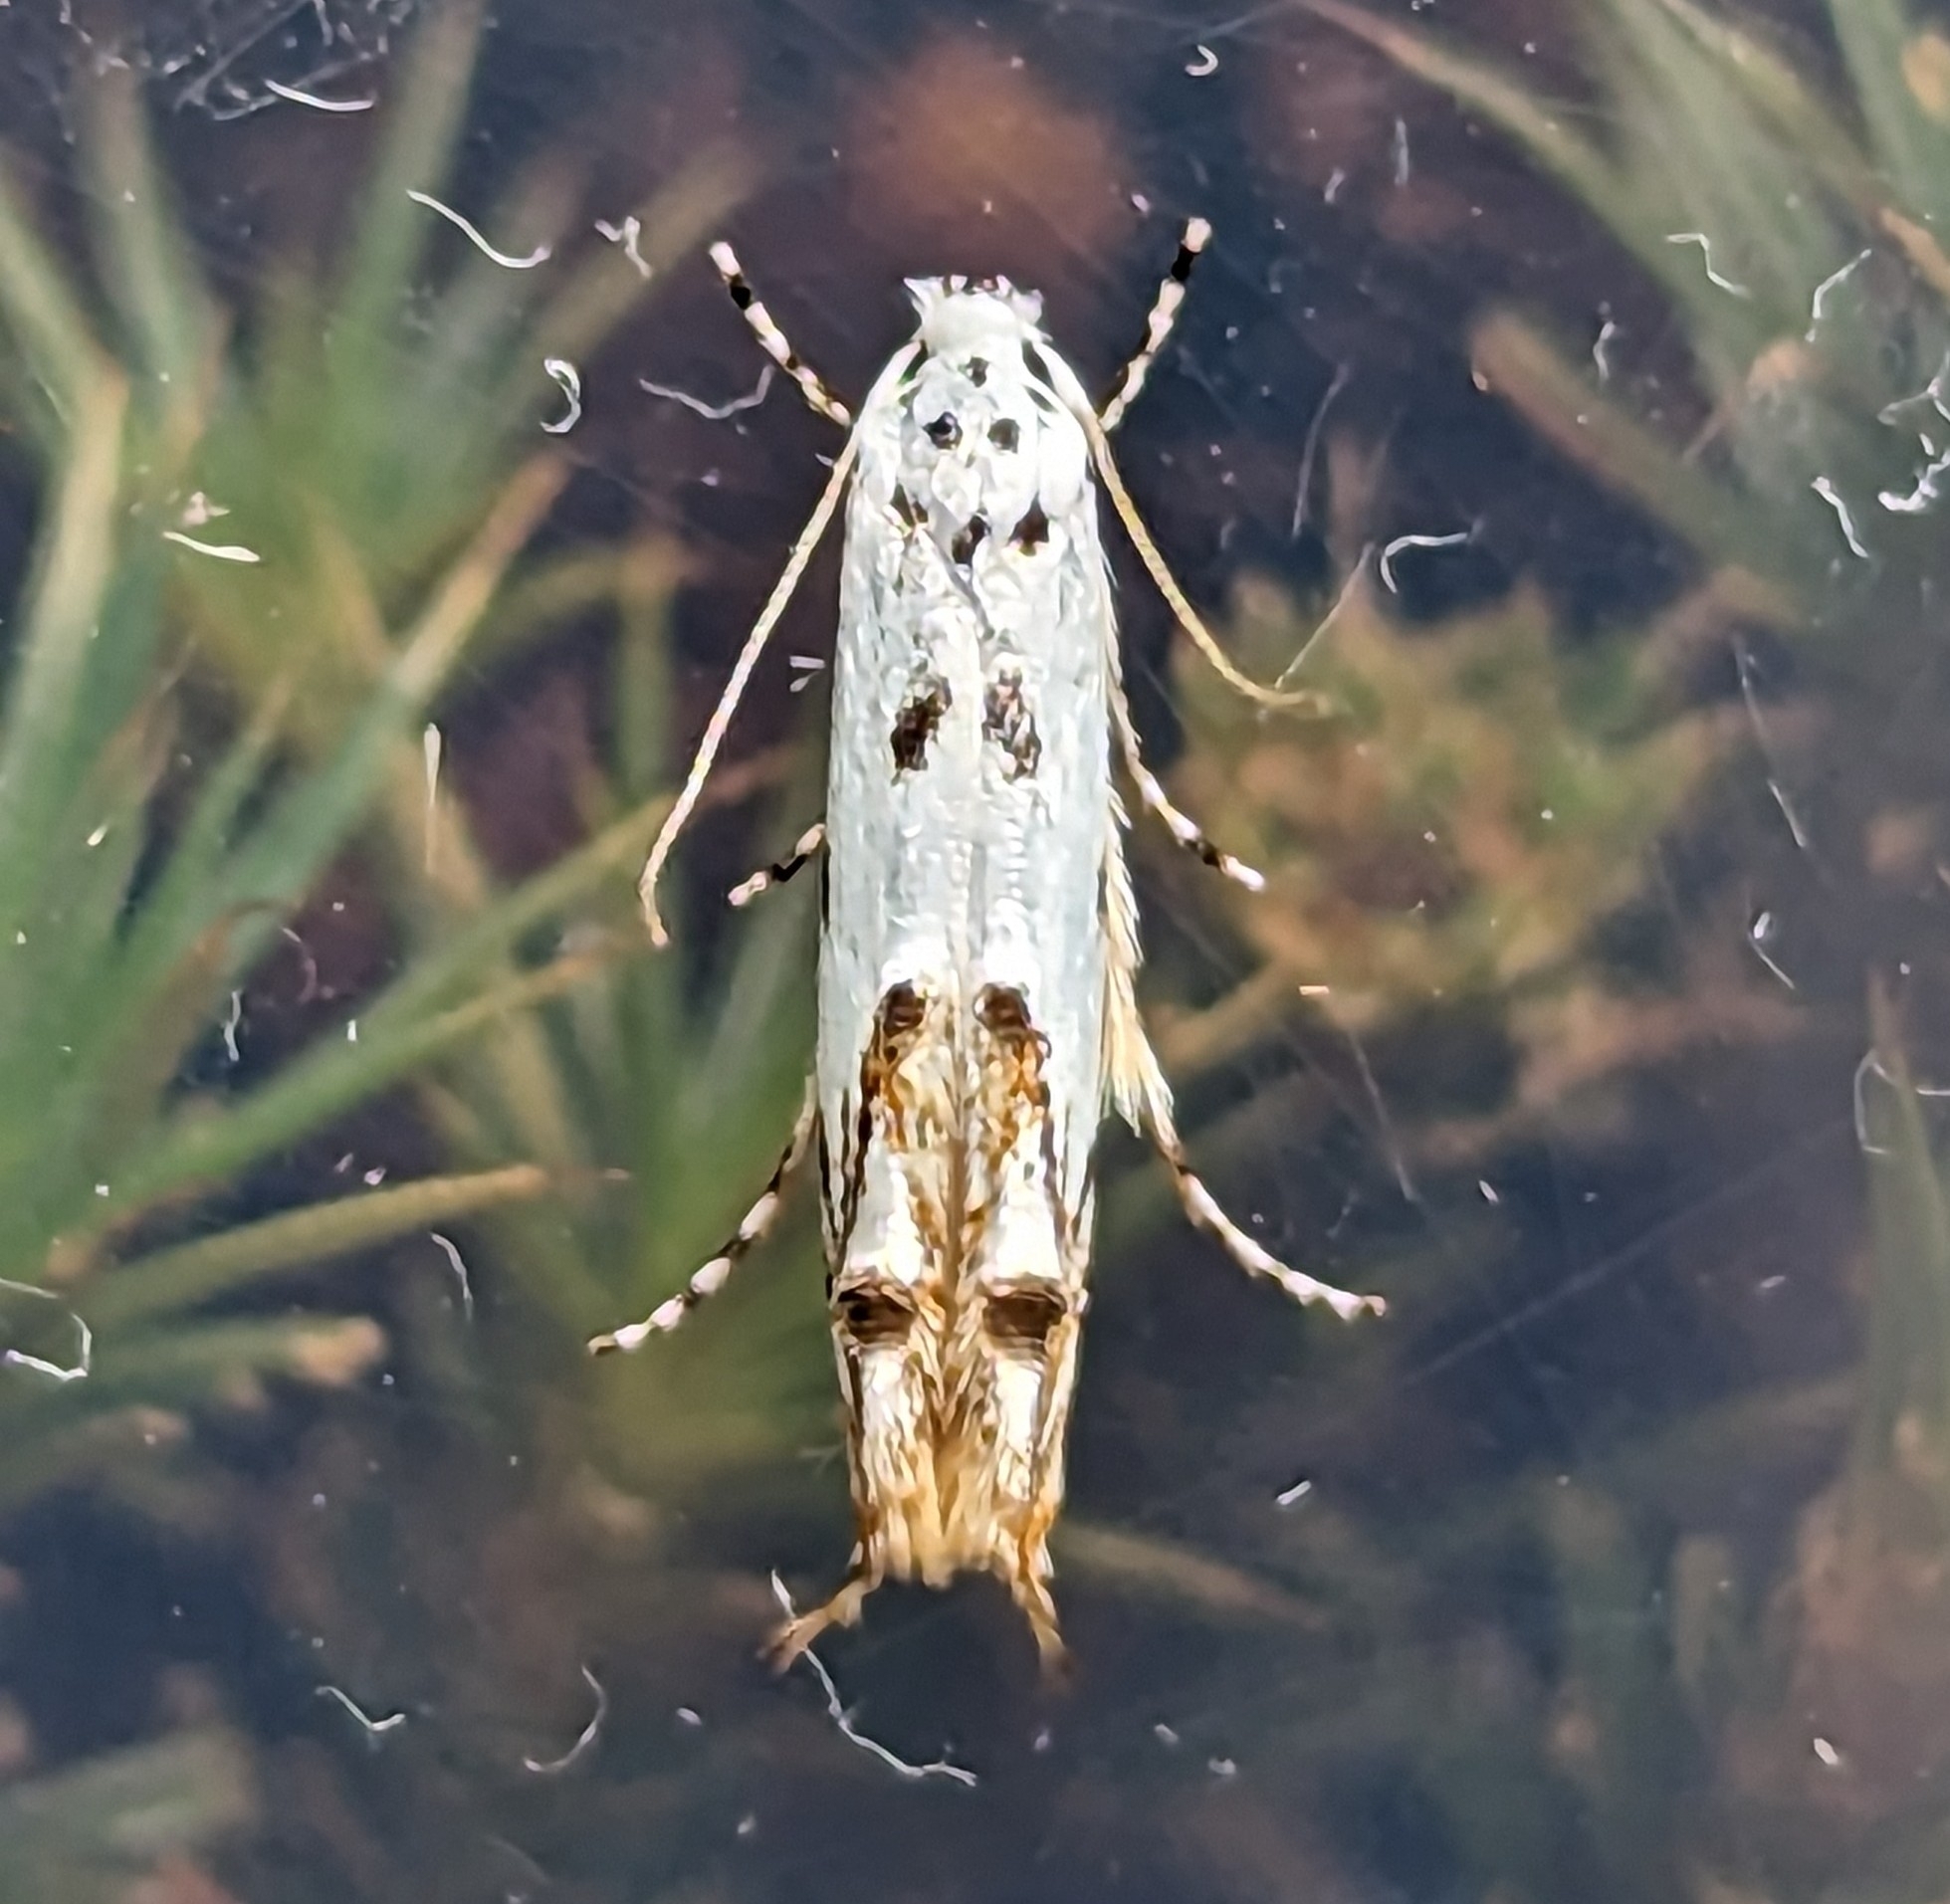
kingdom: Animalia
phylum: Arthropoda
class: Insecta
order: Lepidoptera
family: Momphidae
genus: Mompha
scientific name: Mompha eloisella
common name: Red-streaked mompha moth
